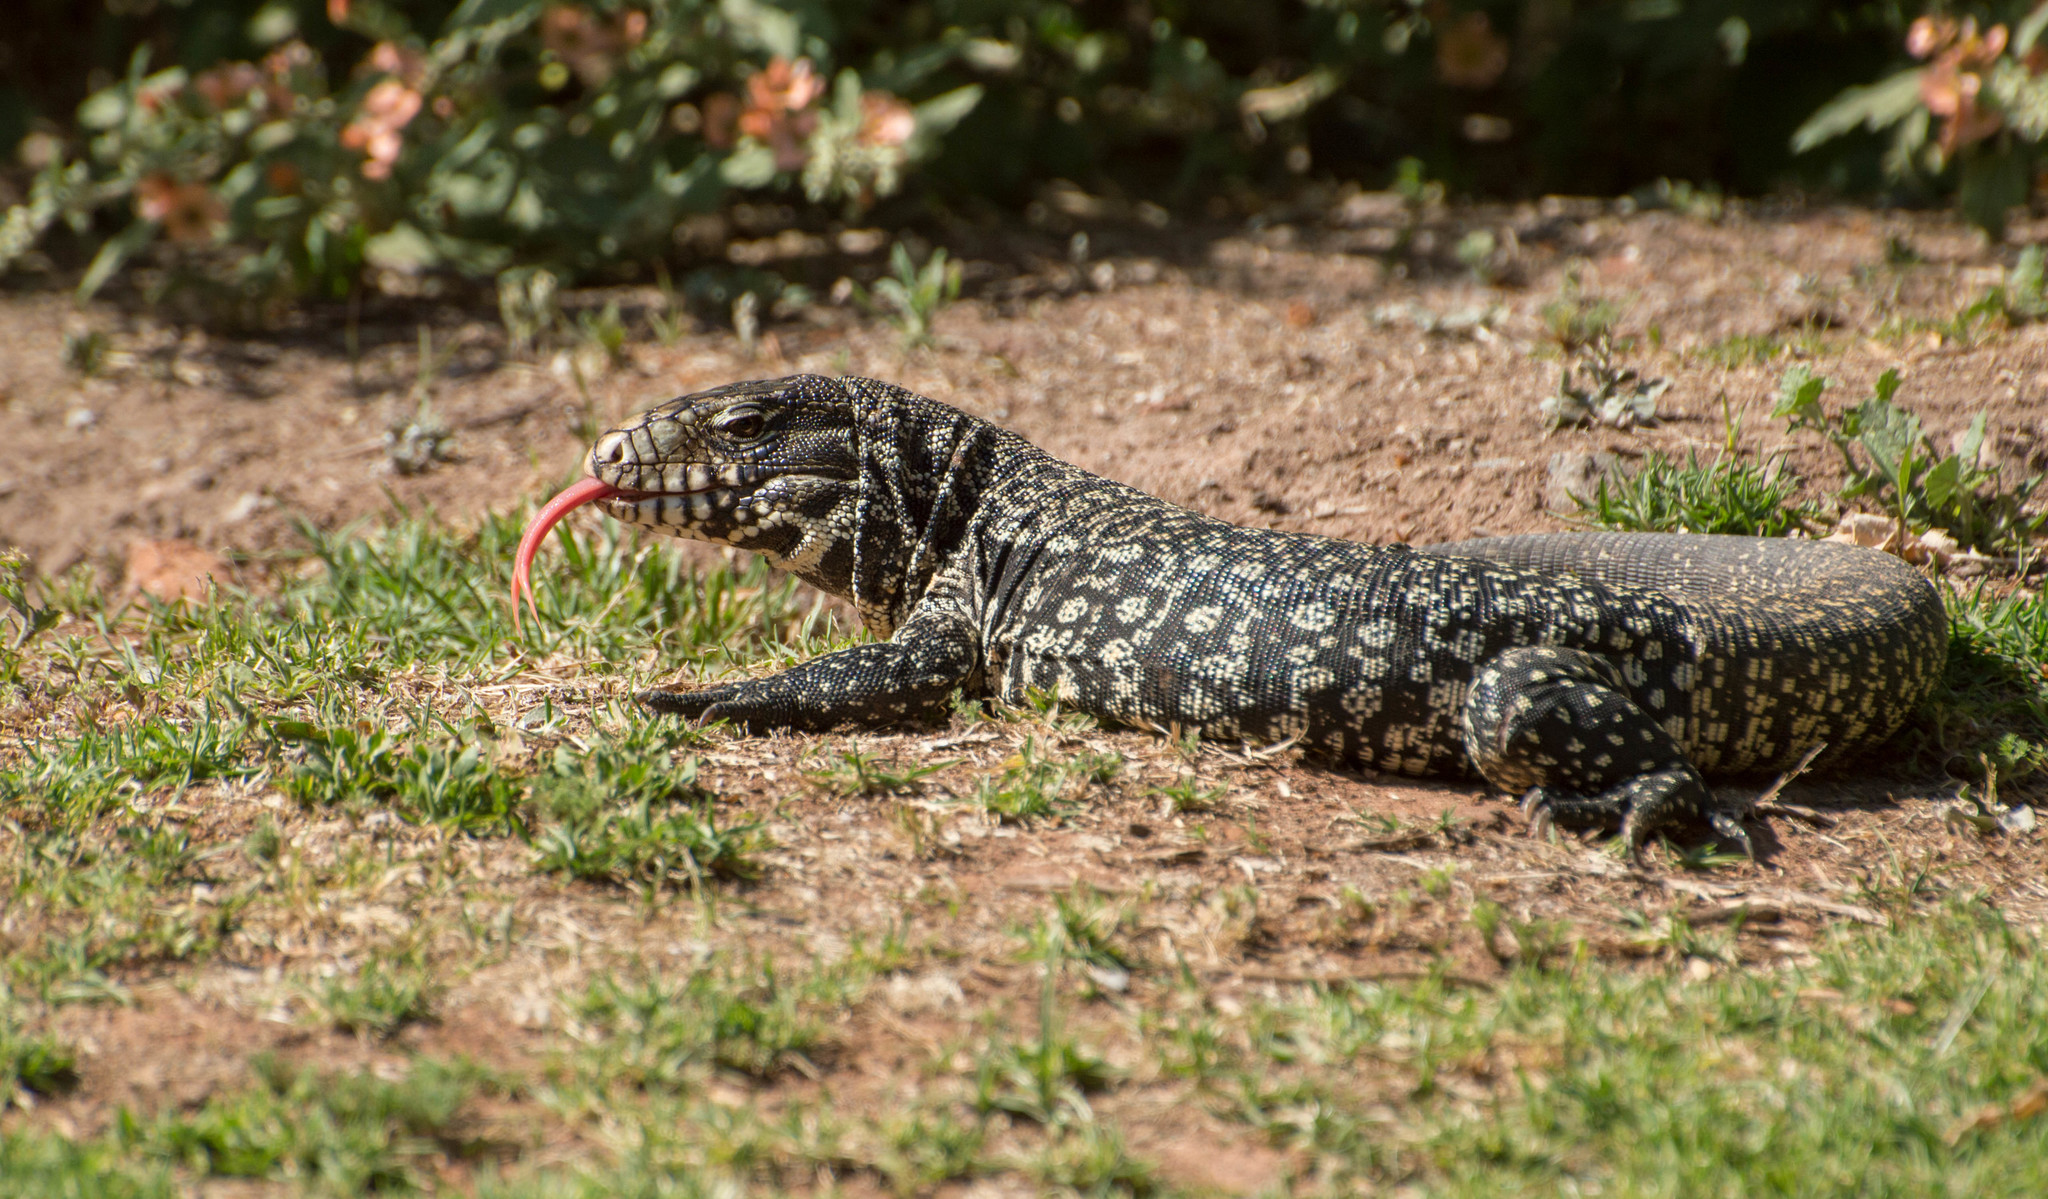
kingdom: Animalia
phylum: Chordata
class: Squamata
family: Teiidae
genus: Salvator
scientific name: Salvator merianae
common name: Argentine black and white tegu
